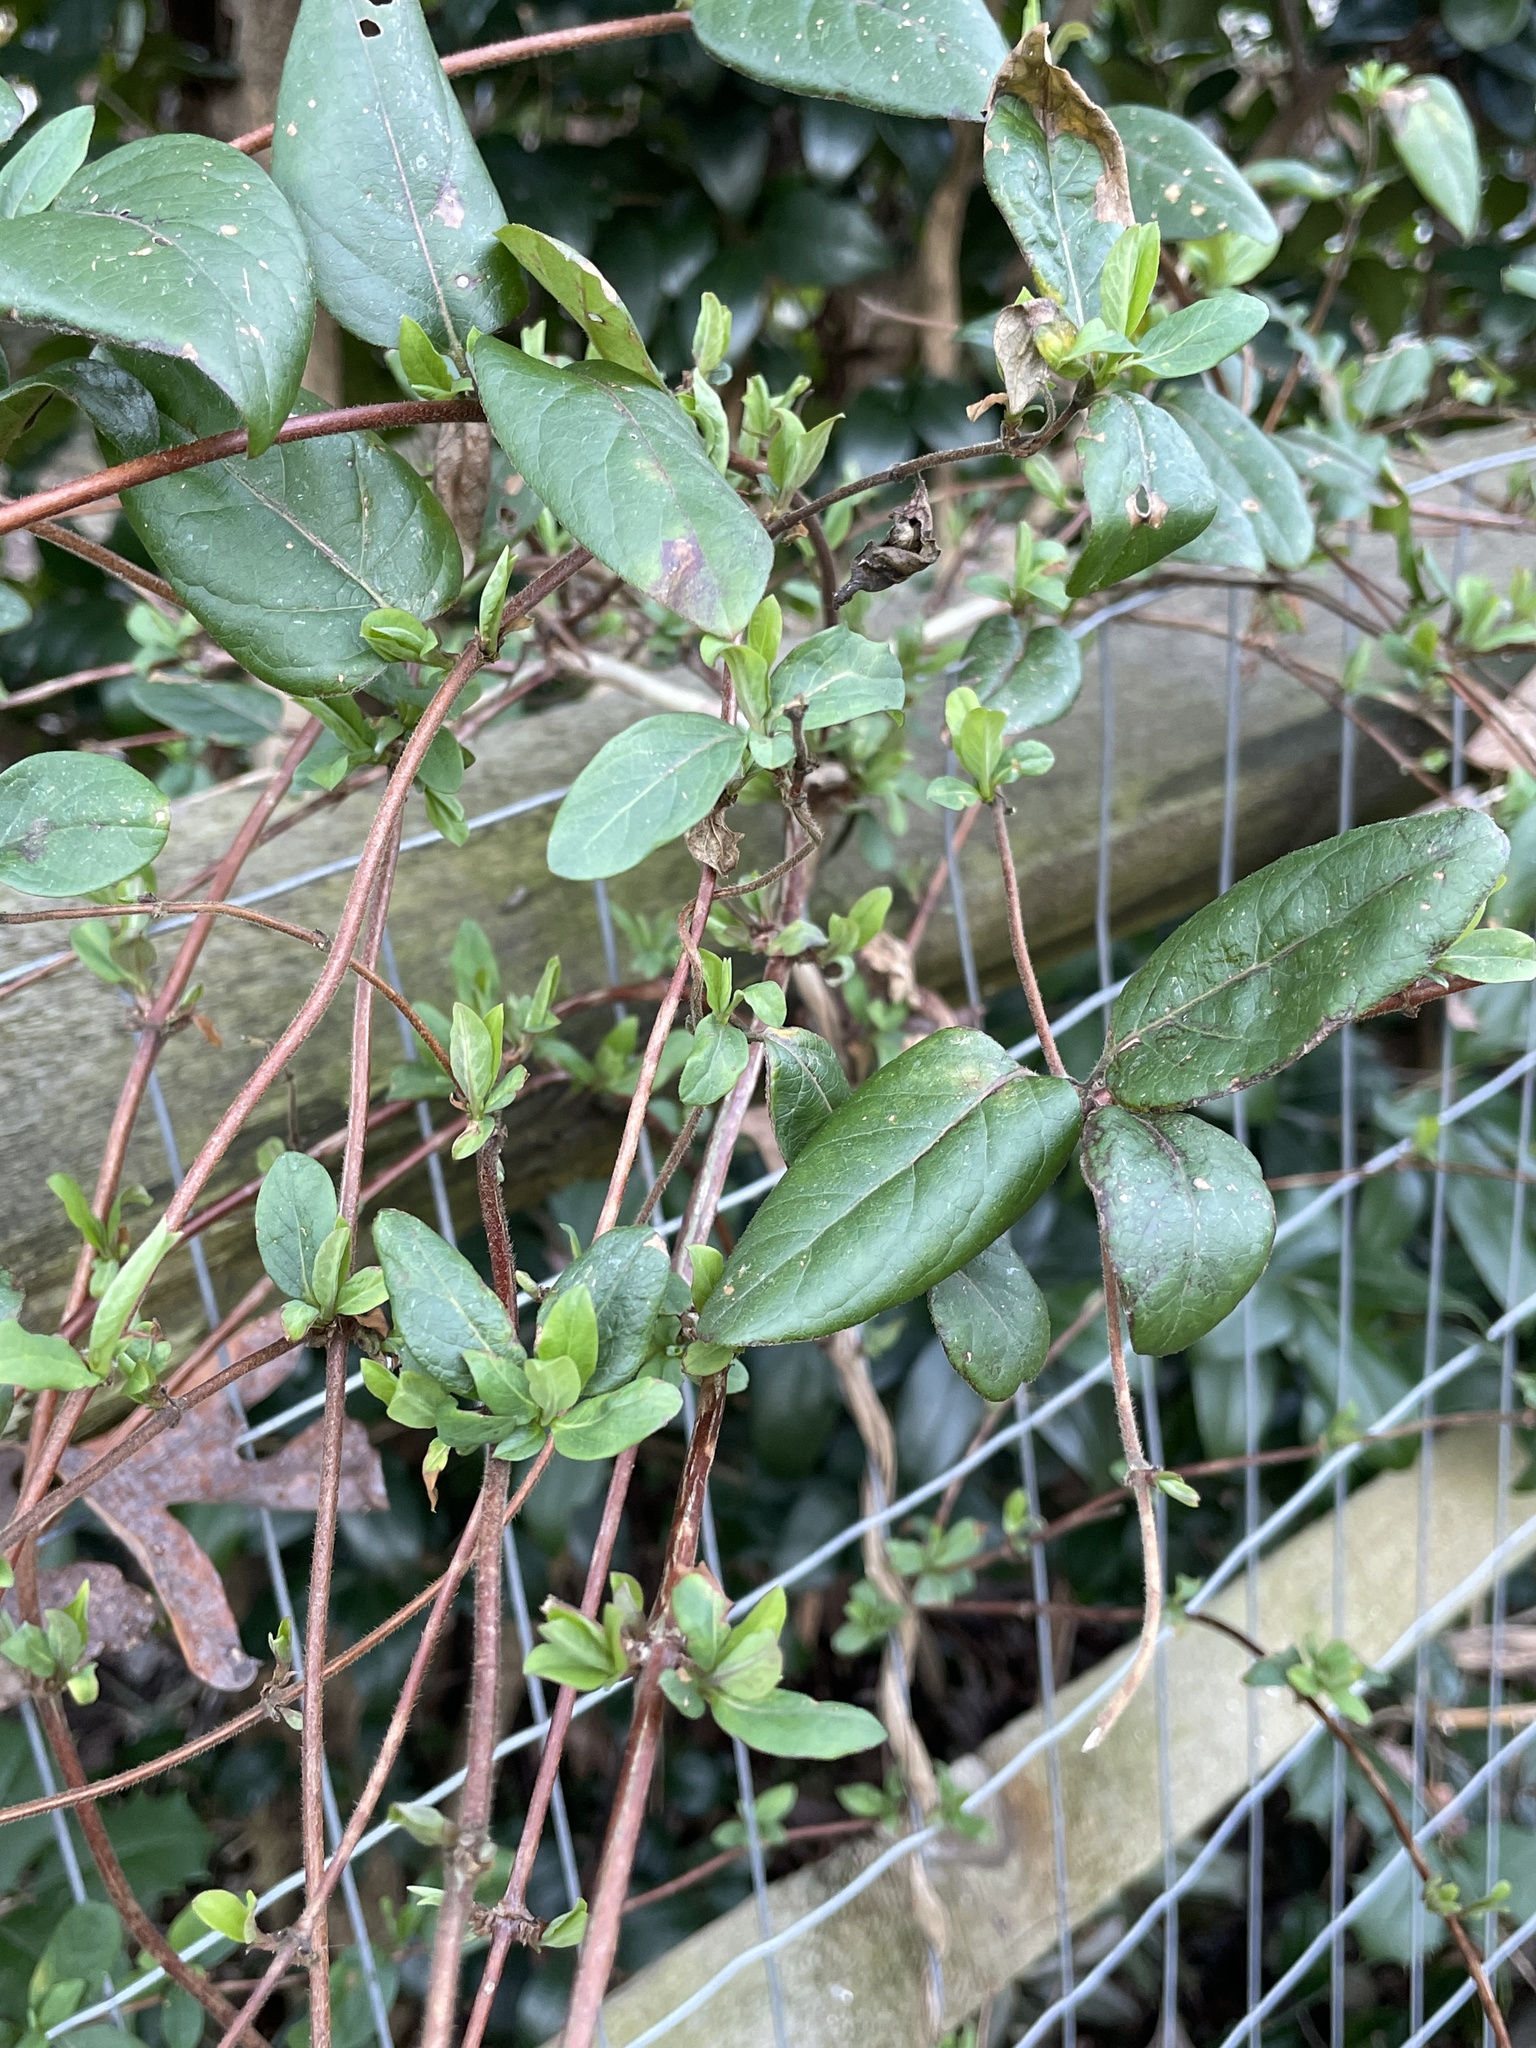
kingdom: Plantae
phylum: Tracheophyta
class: Magnoliopsida
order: Dipsacales
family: Caprifoliaceae
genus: Lonicera
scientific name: Lonicera japonica
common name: Japanese honeysuckle
